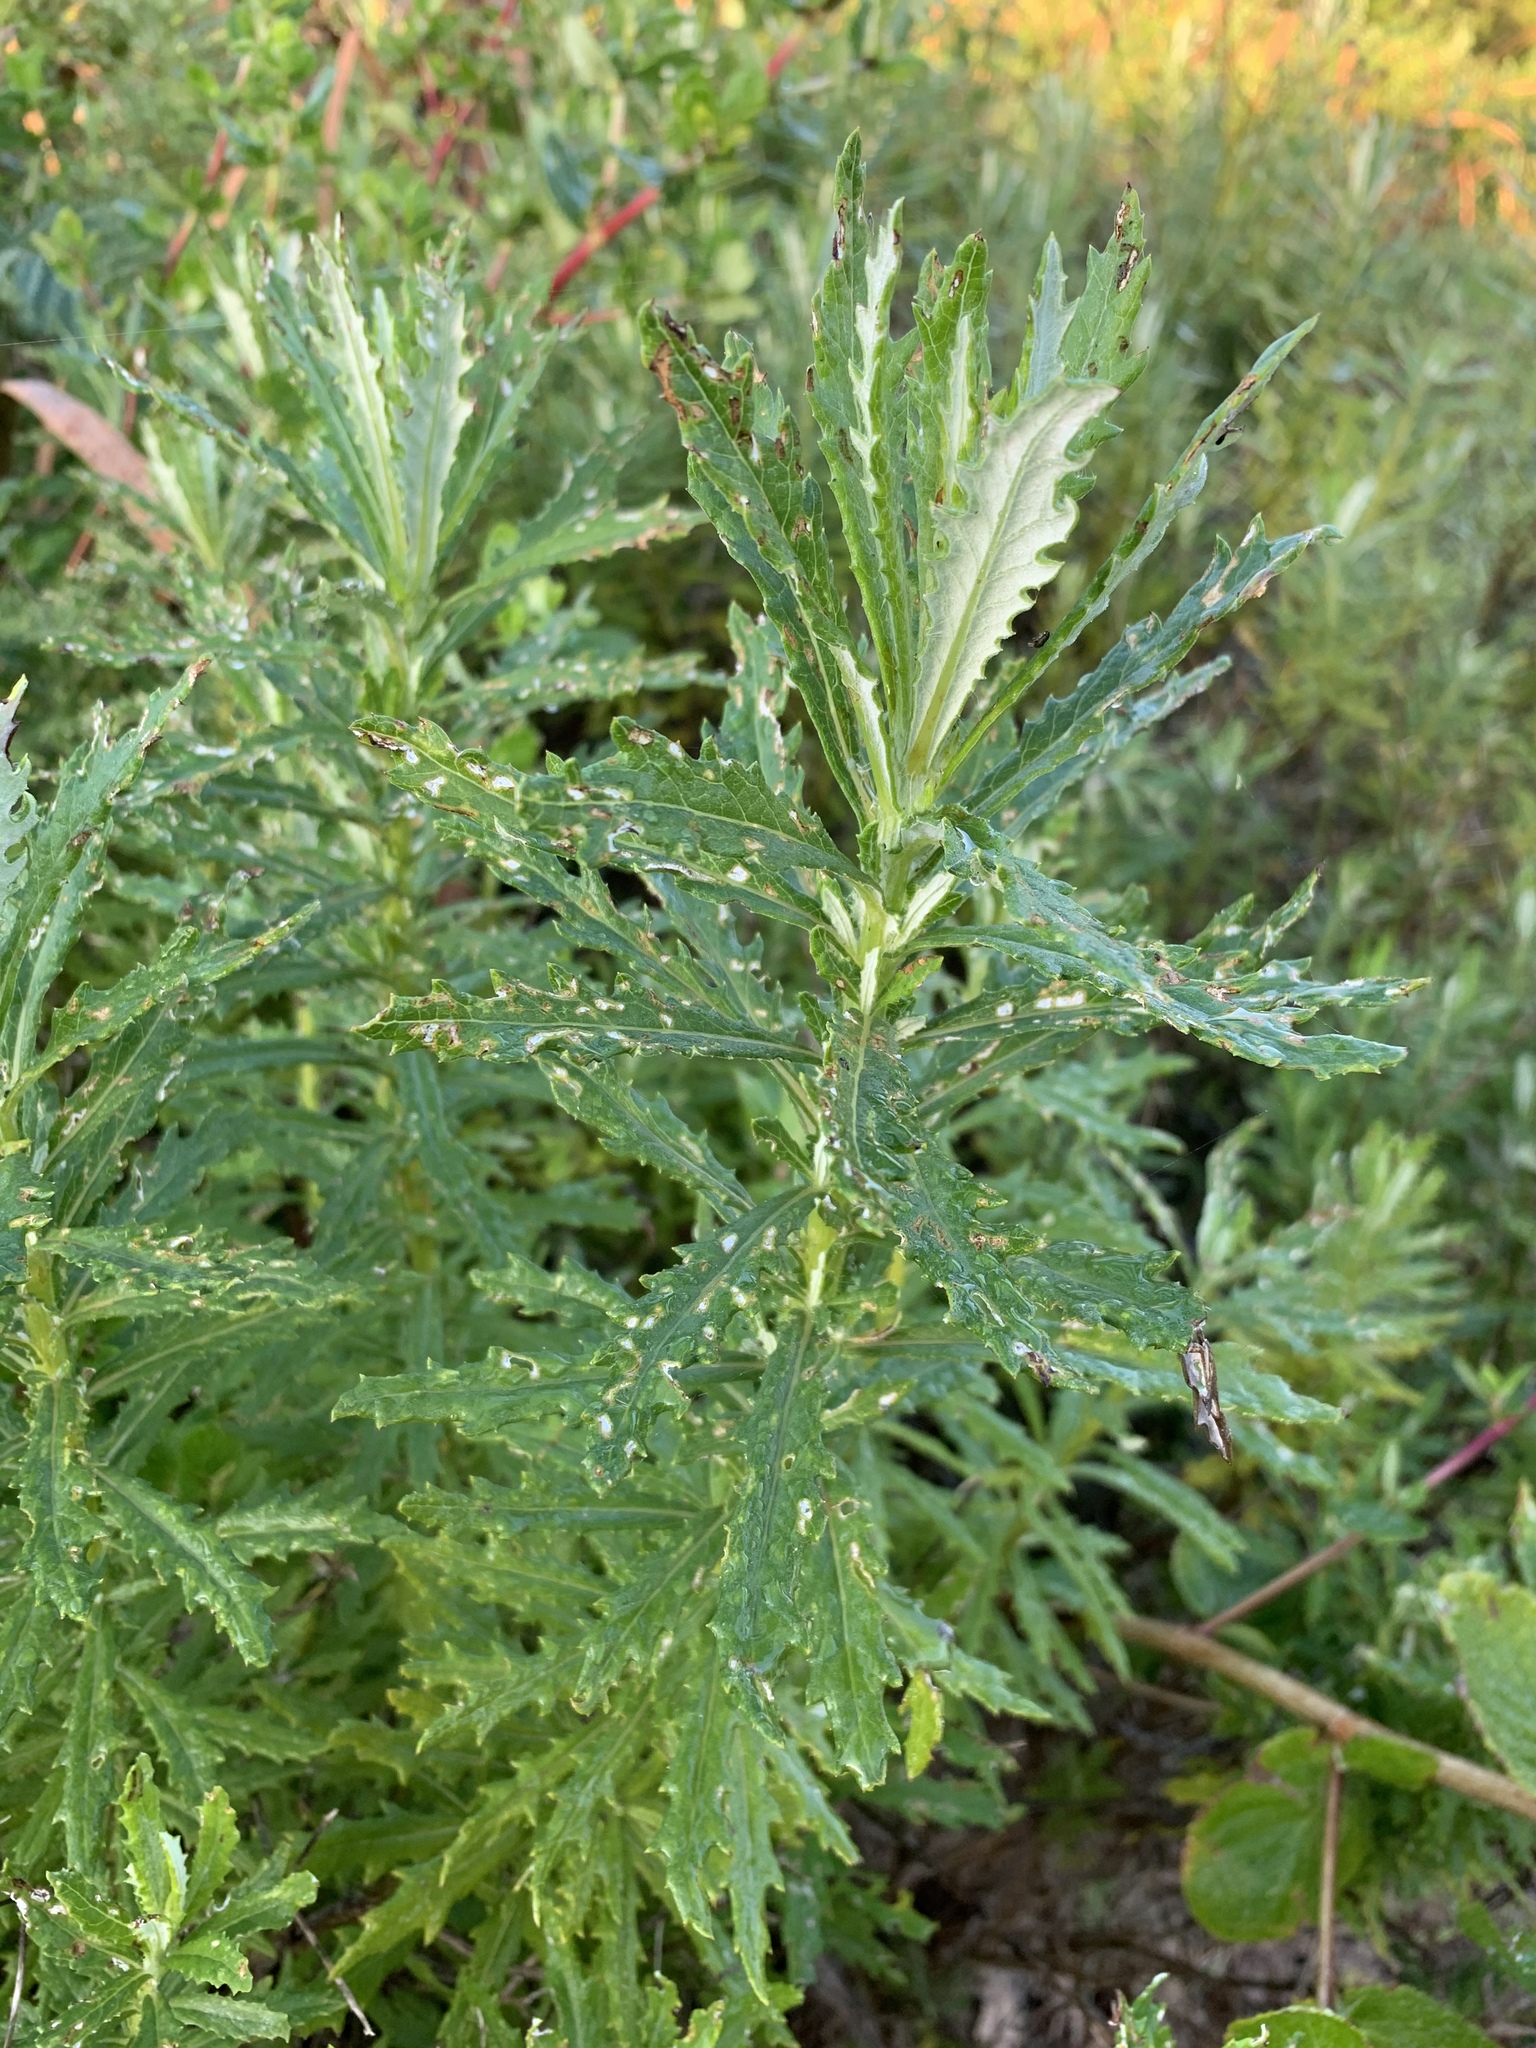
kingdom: Plantae
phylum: Tracheophyta
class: Magnoliopsida
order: Asterales
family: Asteraceae
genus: Senecio
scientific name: Senecio pterophorus
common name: Shoddy ragwort
